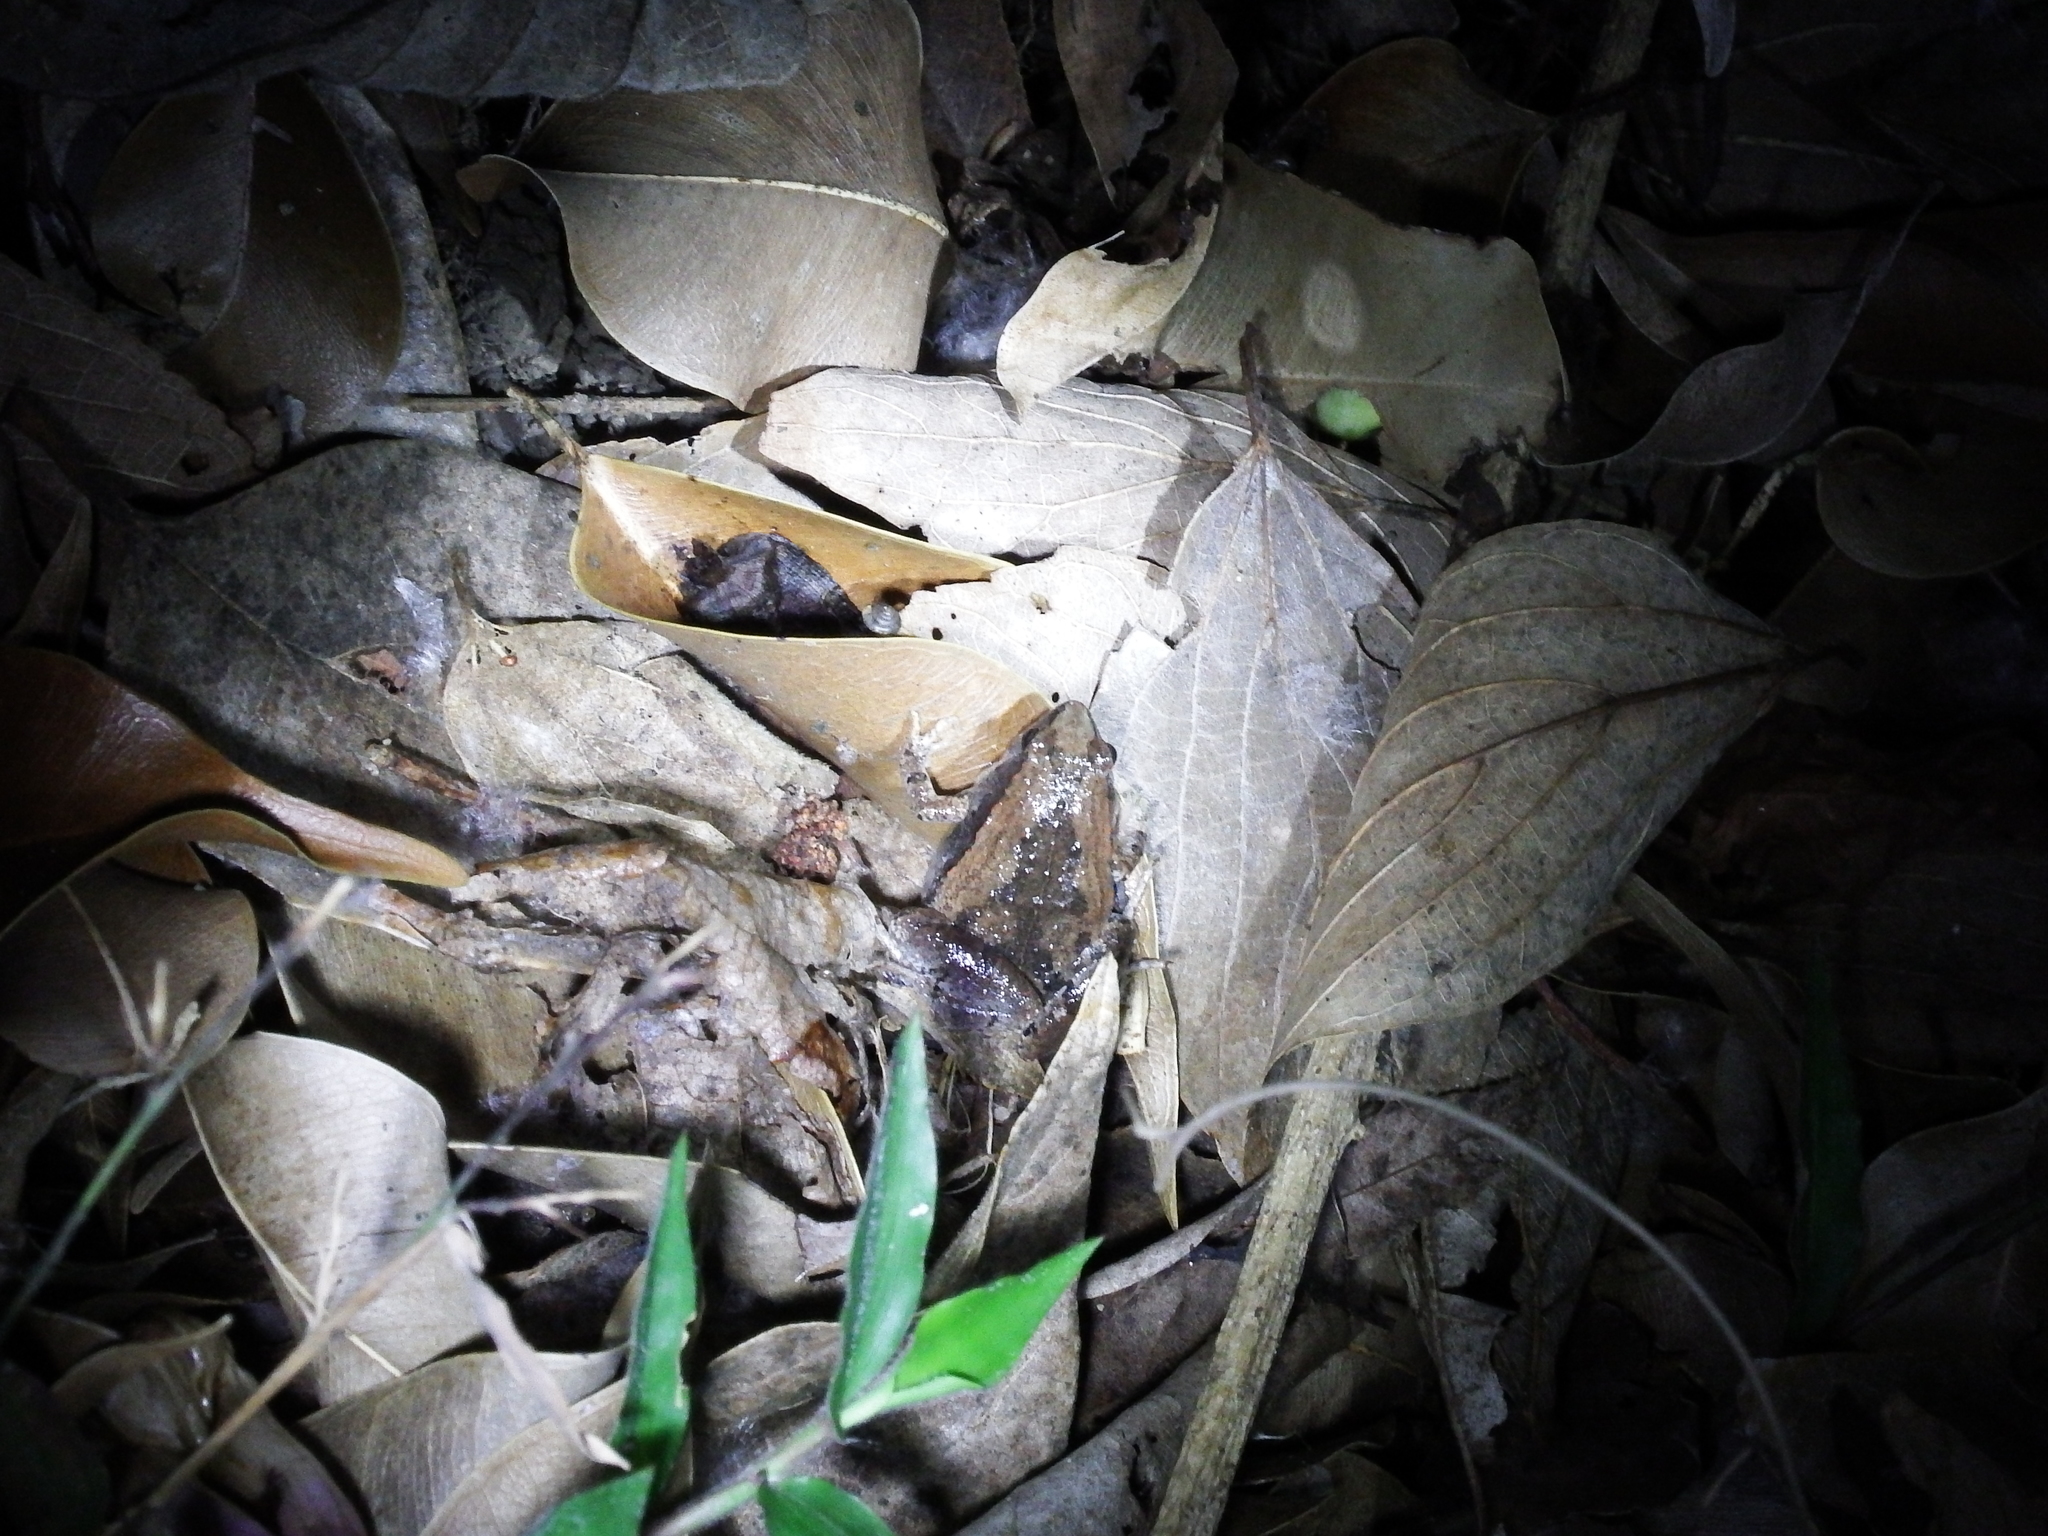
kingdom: Animalia
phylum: Chordata
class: Amphibia
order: Anura
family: Microhylidae
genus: Microhyla
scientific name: Microhyla fissipes
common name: Ornate narrow-mouthed frog
